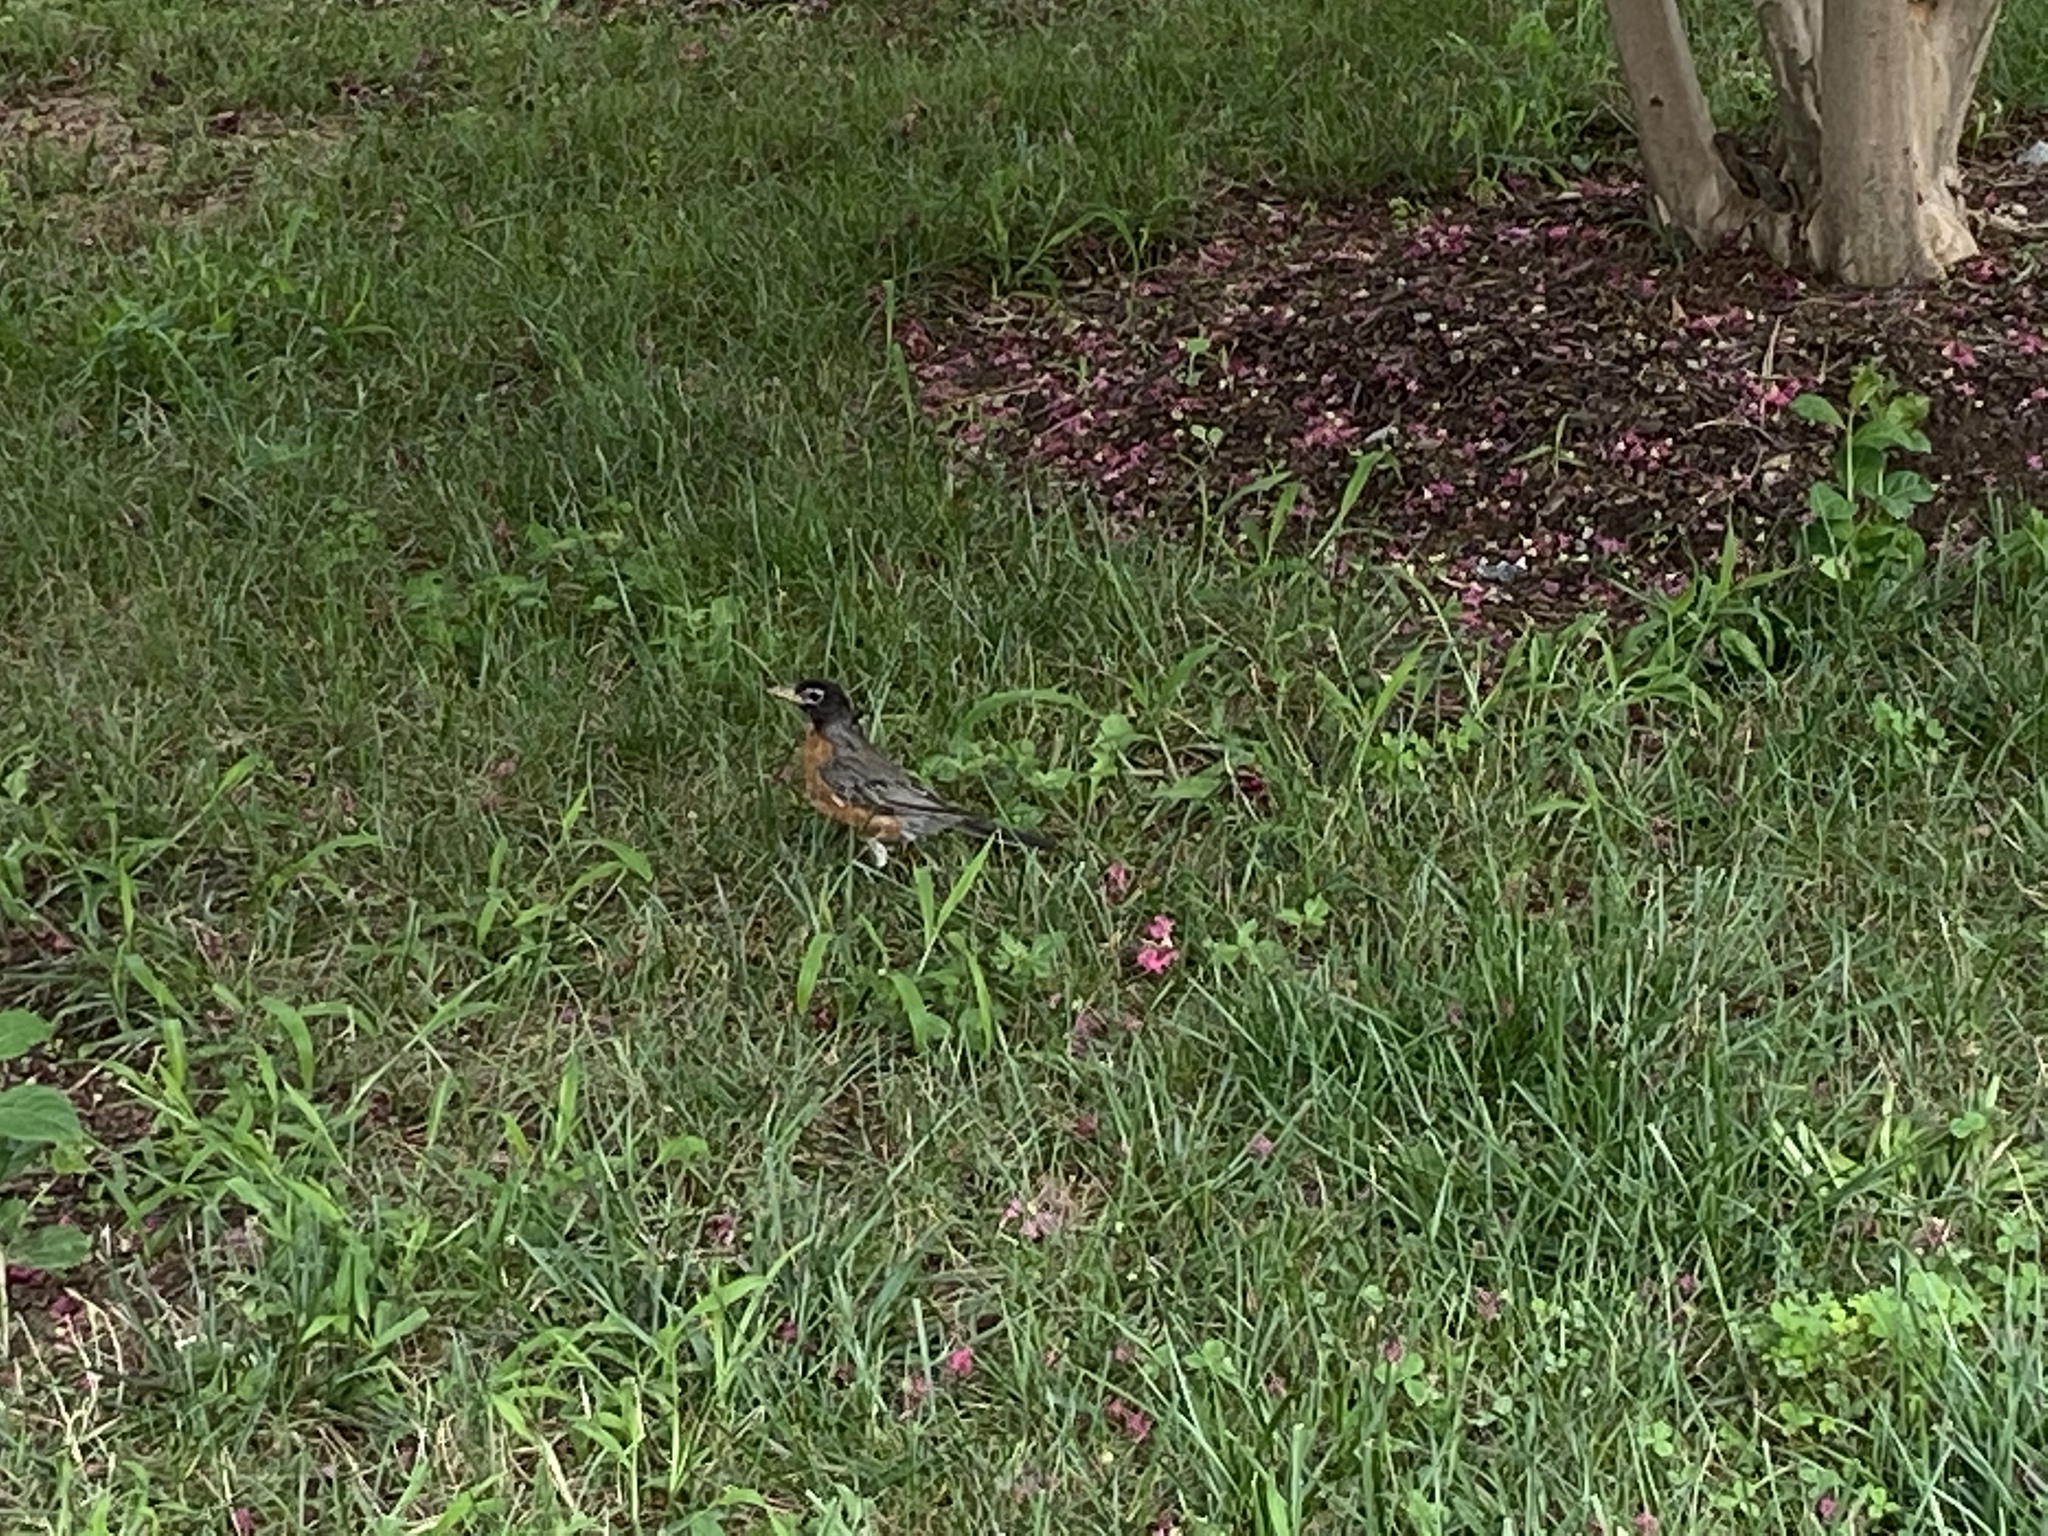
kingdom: Animalia
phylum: Chordata
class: Aves
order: Passeriformes
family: Turdidae
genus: Turdus
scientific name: Turdus migratorius
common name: American robin
